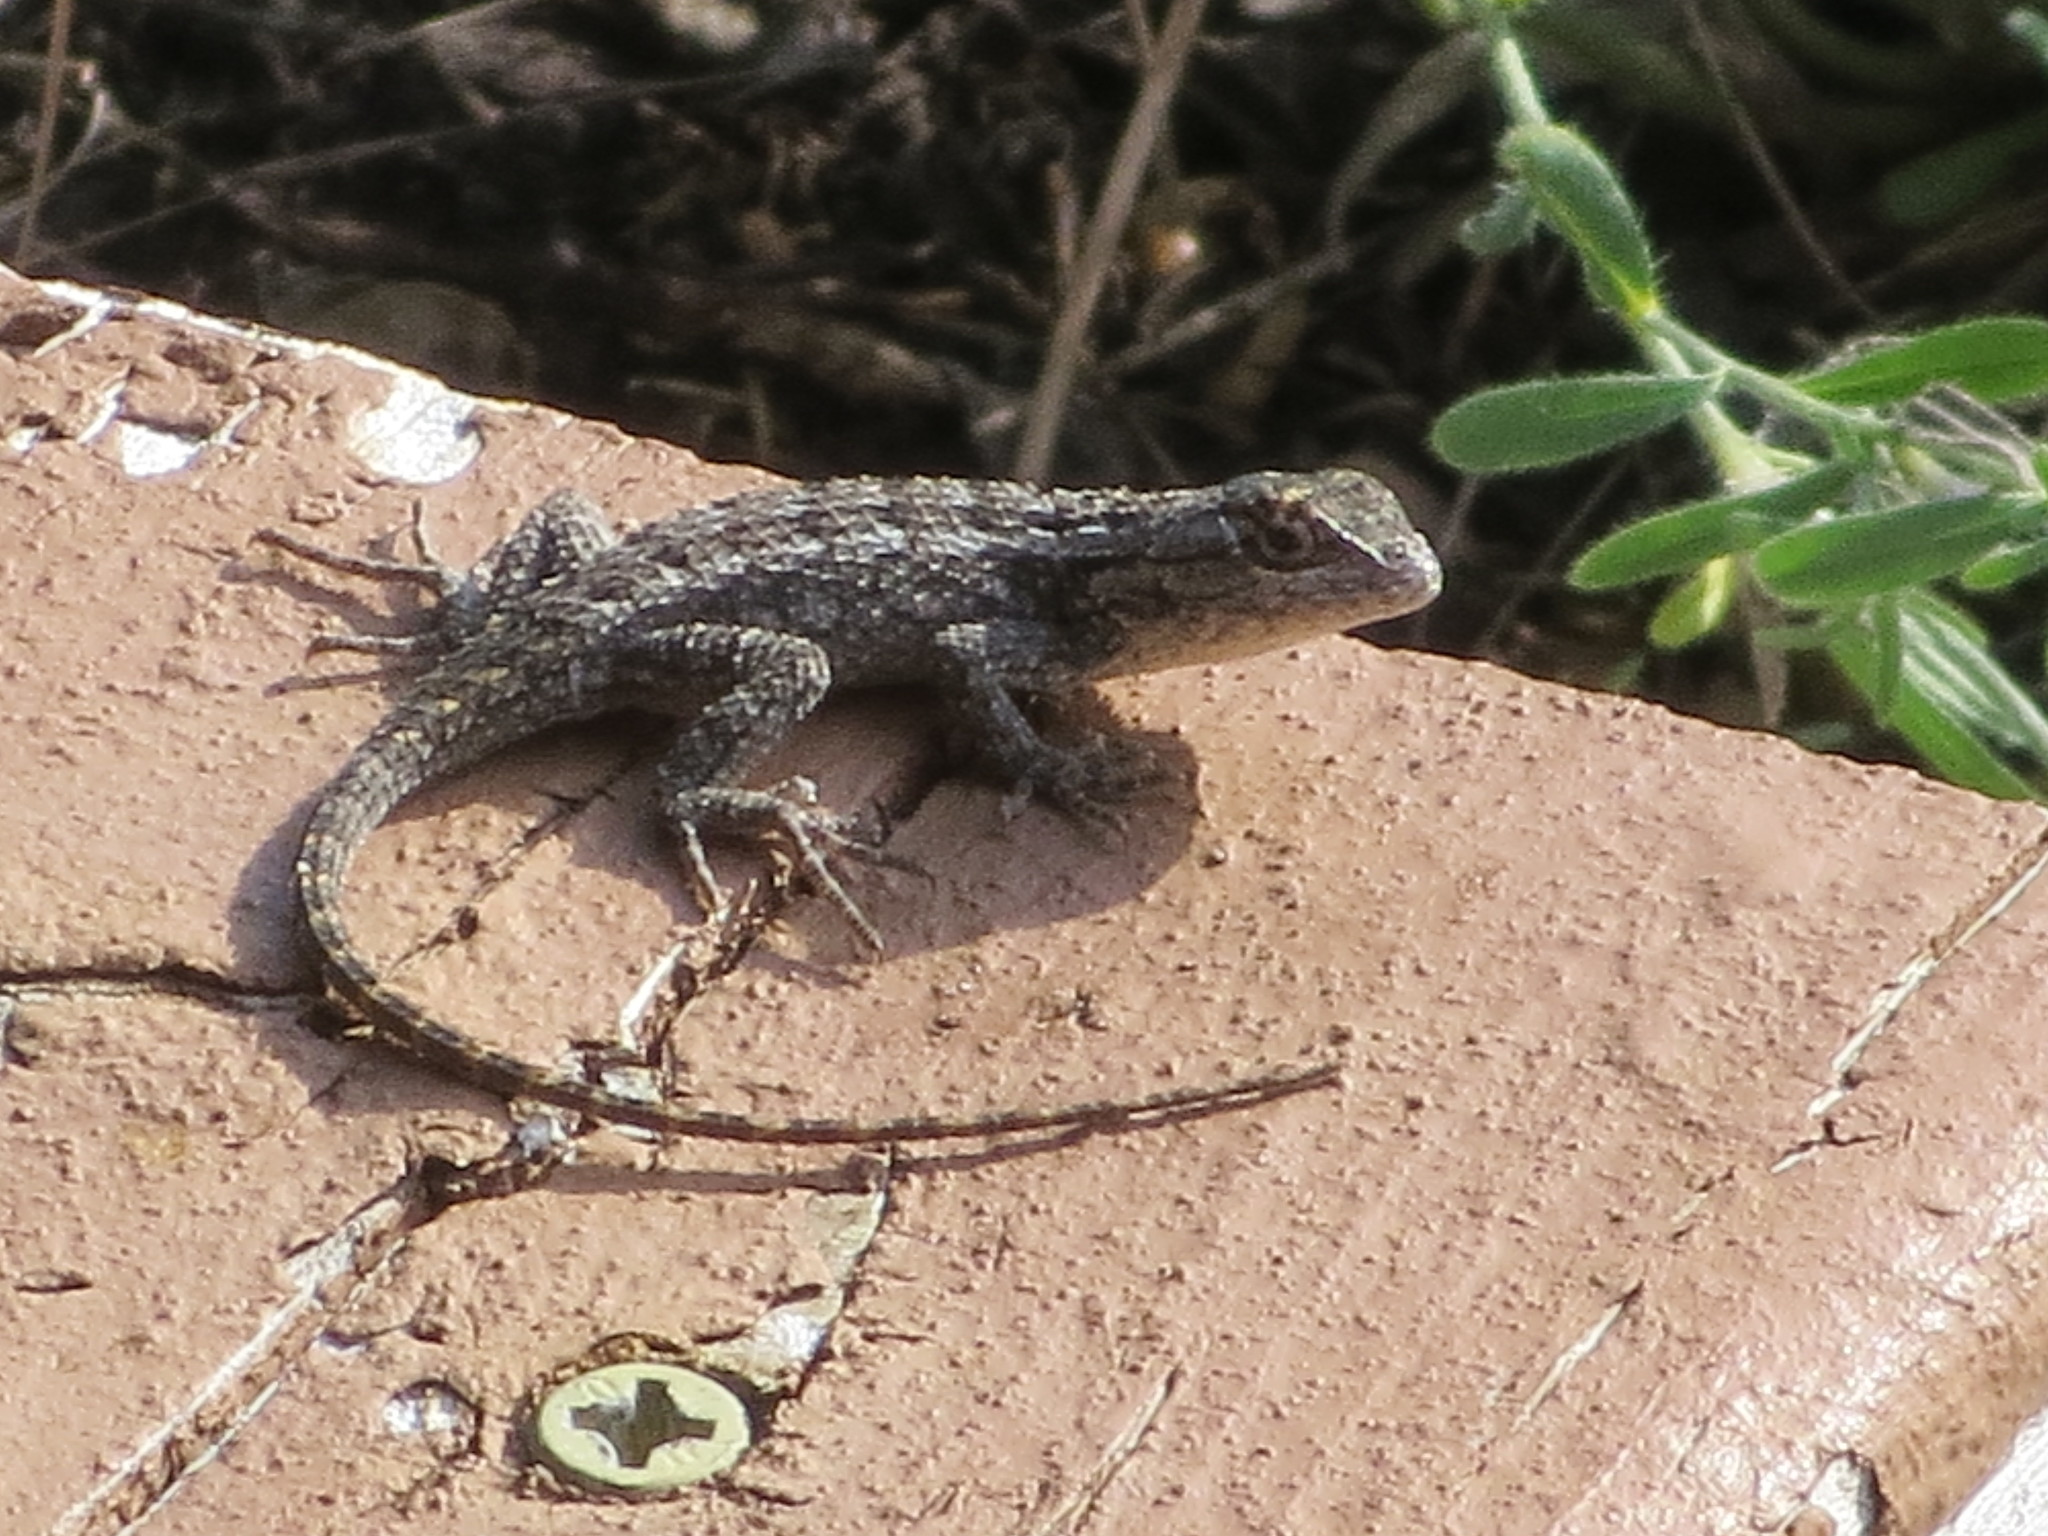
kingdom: Animalia
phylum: Chordata
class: Squamata
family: Phrynosomatidae
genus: Sceloporus
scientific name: Sceloporus olivaceus
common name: Texas spiny lizard
